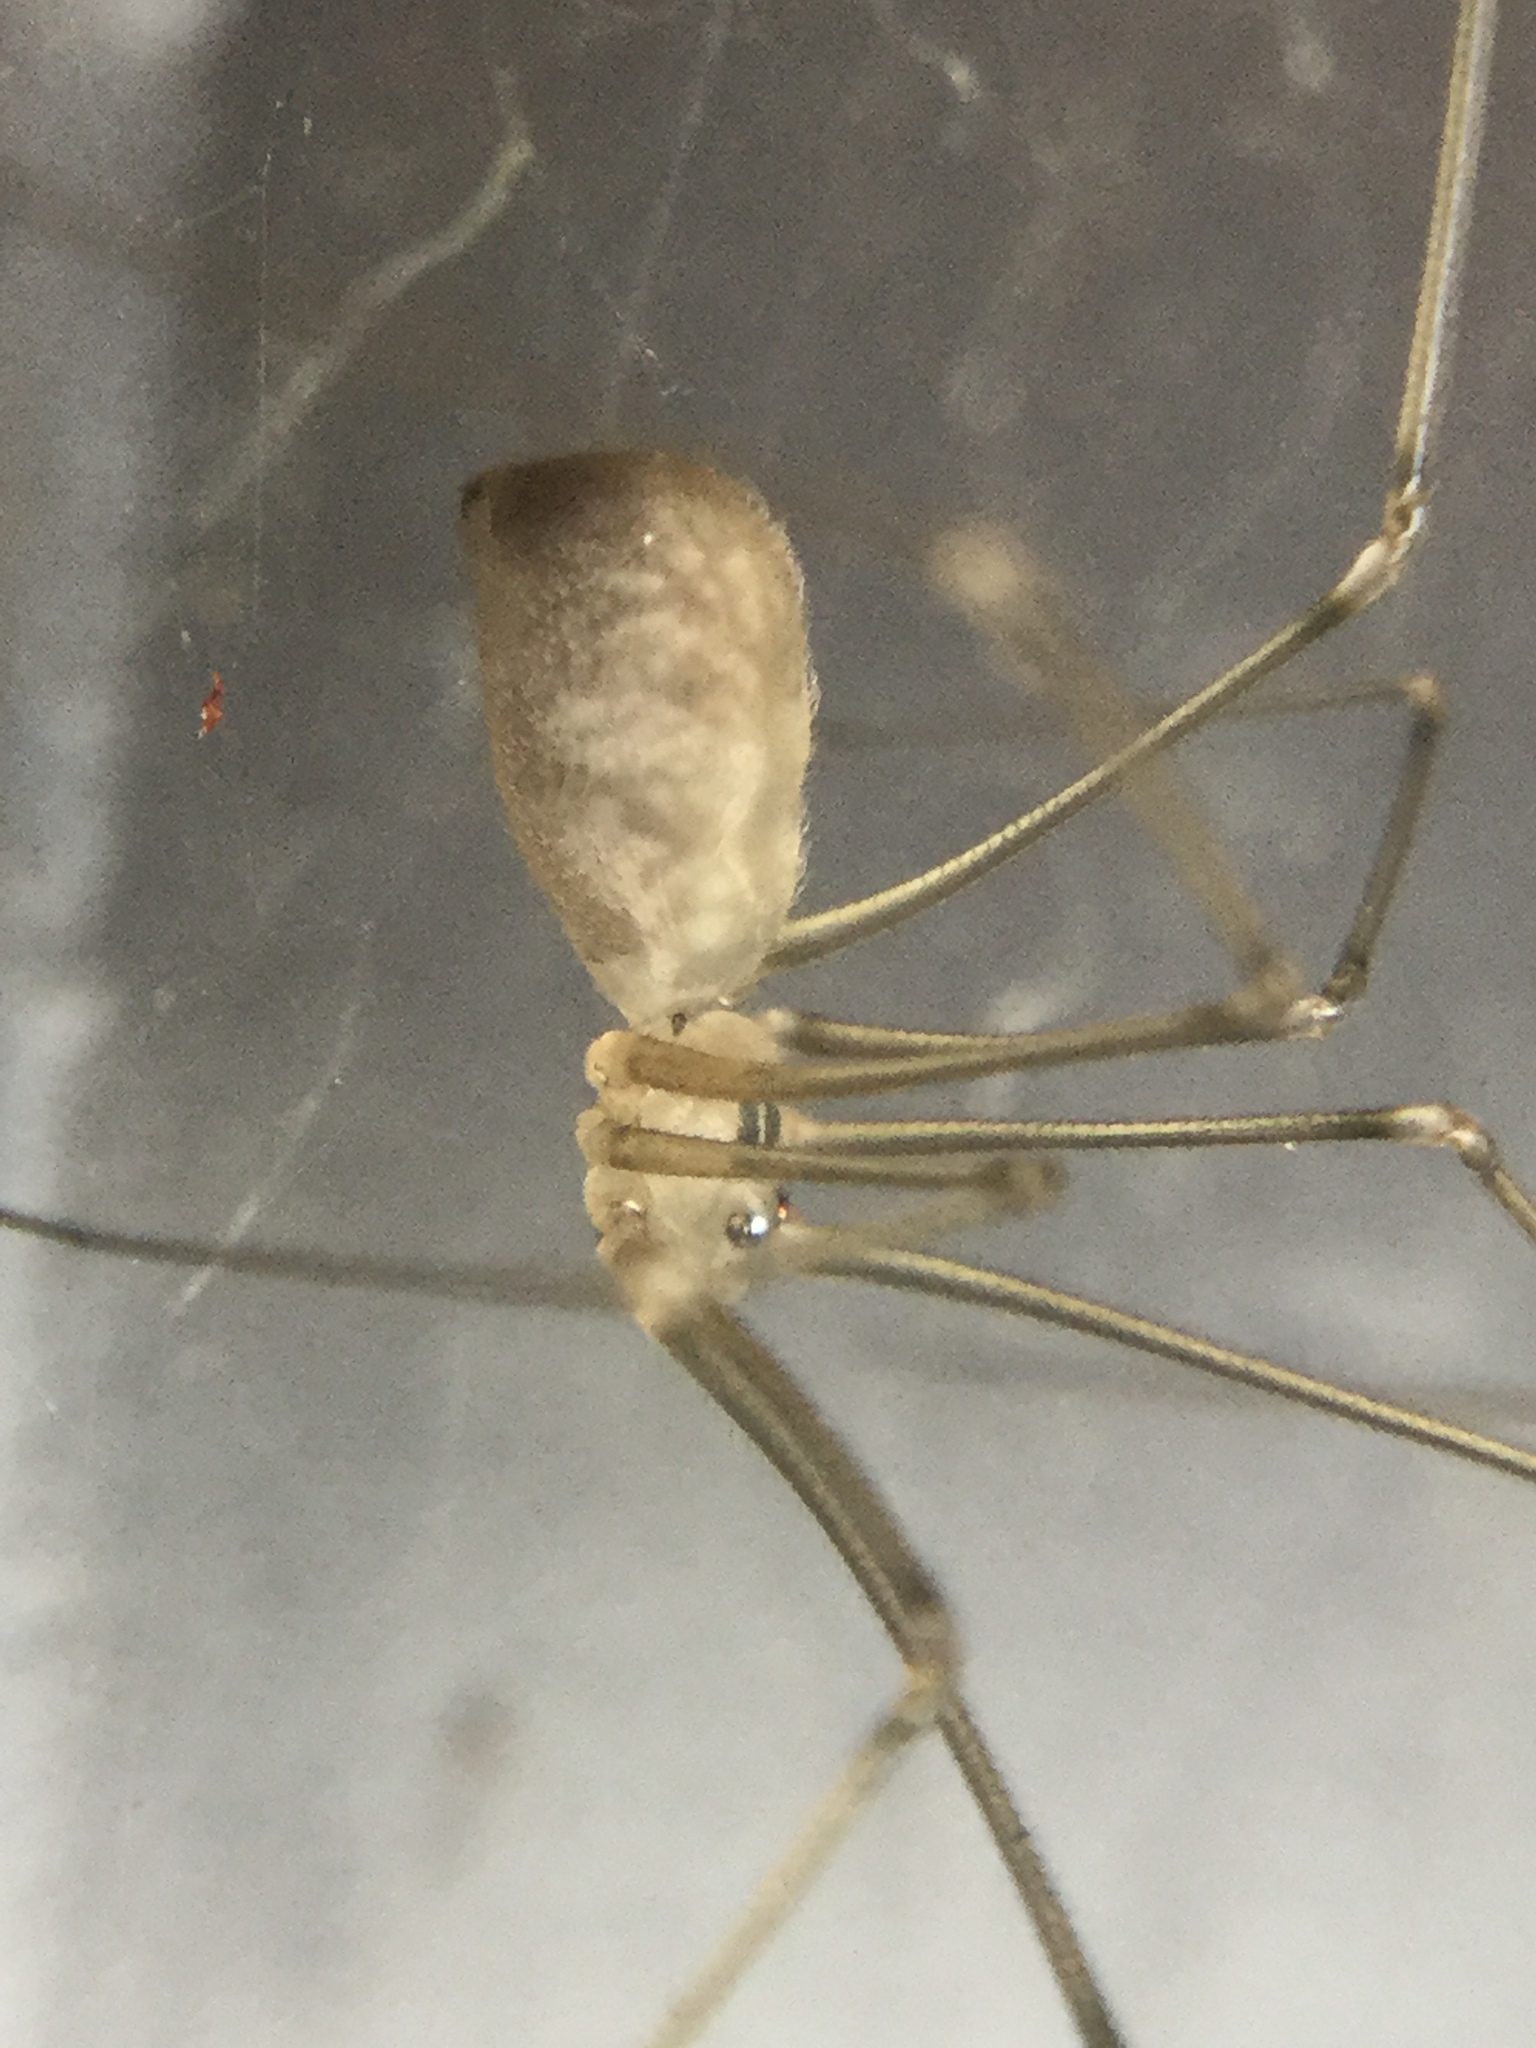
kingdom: Animalia
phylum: Arthropoda
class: Arachnida
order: Araneae
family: Pholcidae
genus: Pholcus
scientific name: Pholcus manueli
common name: Cellar spider
